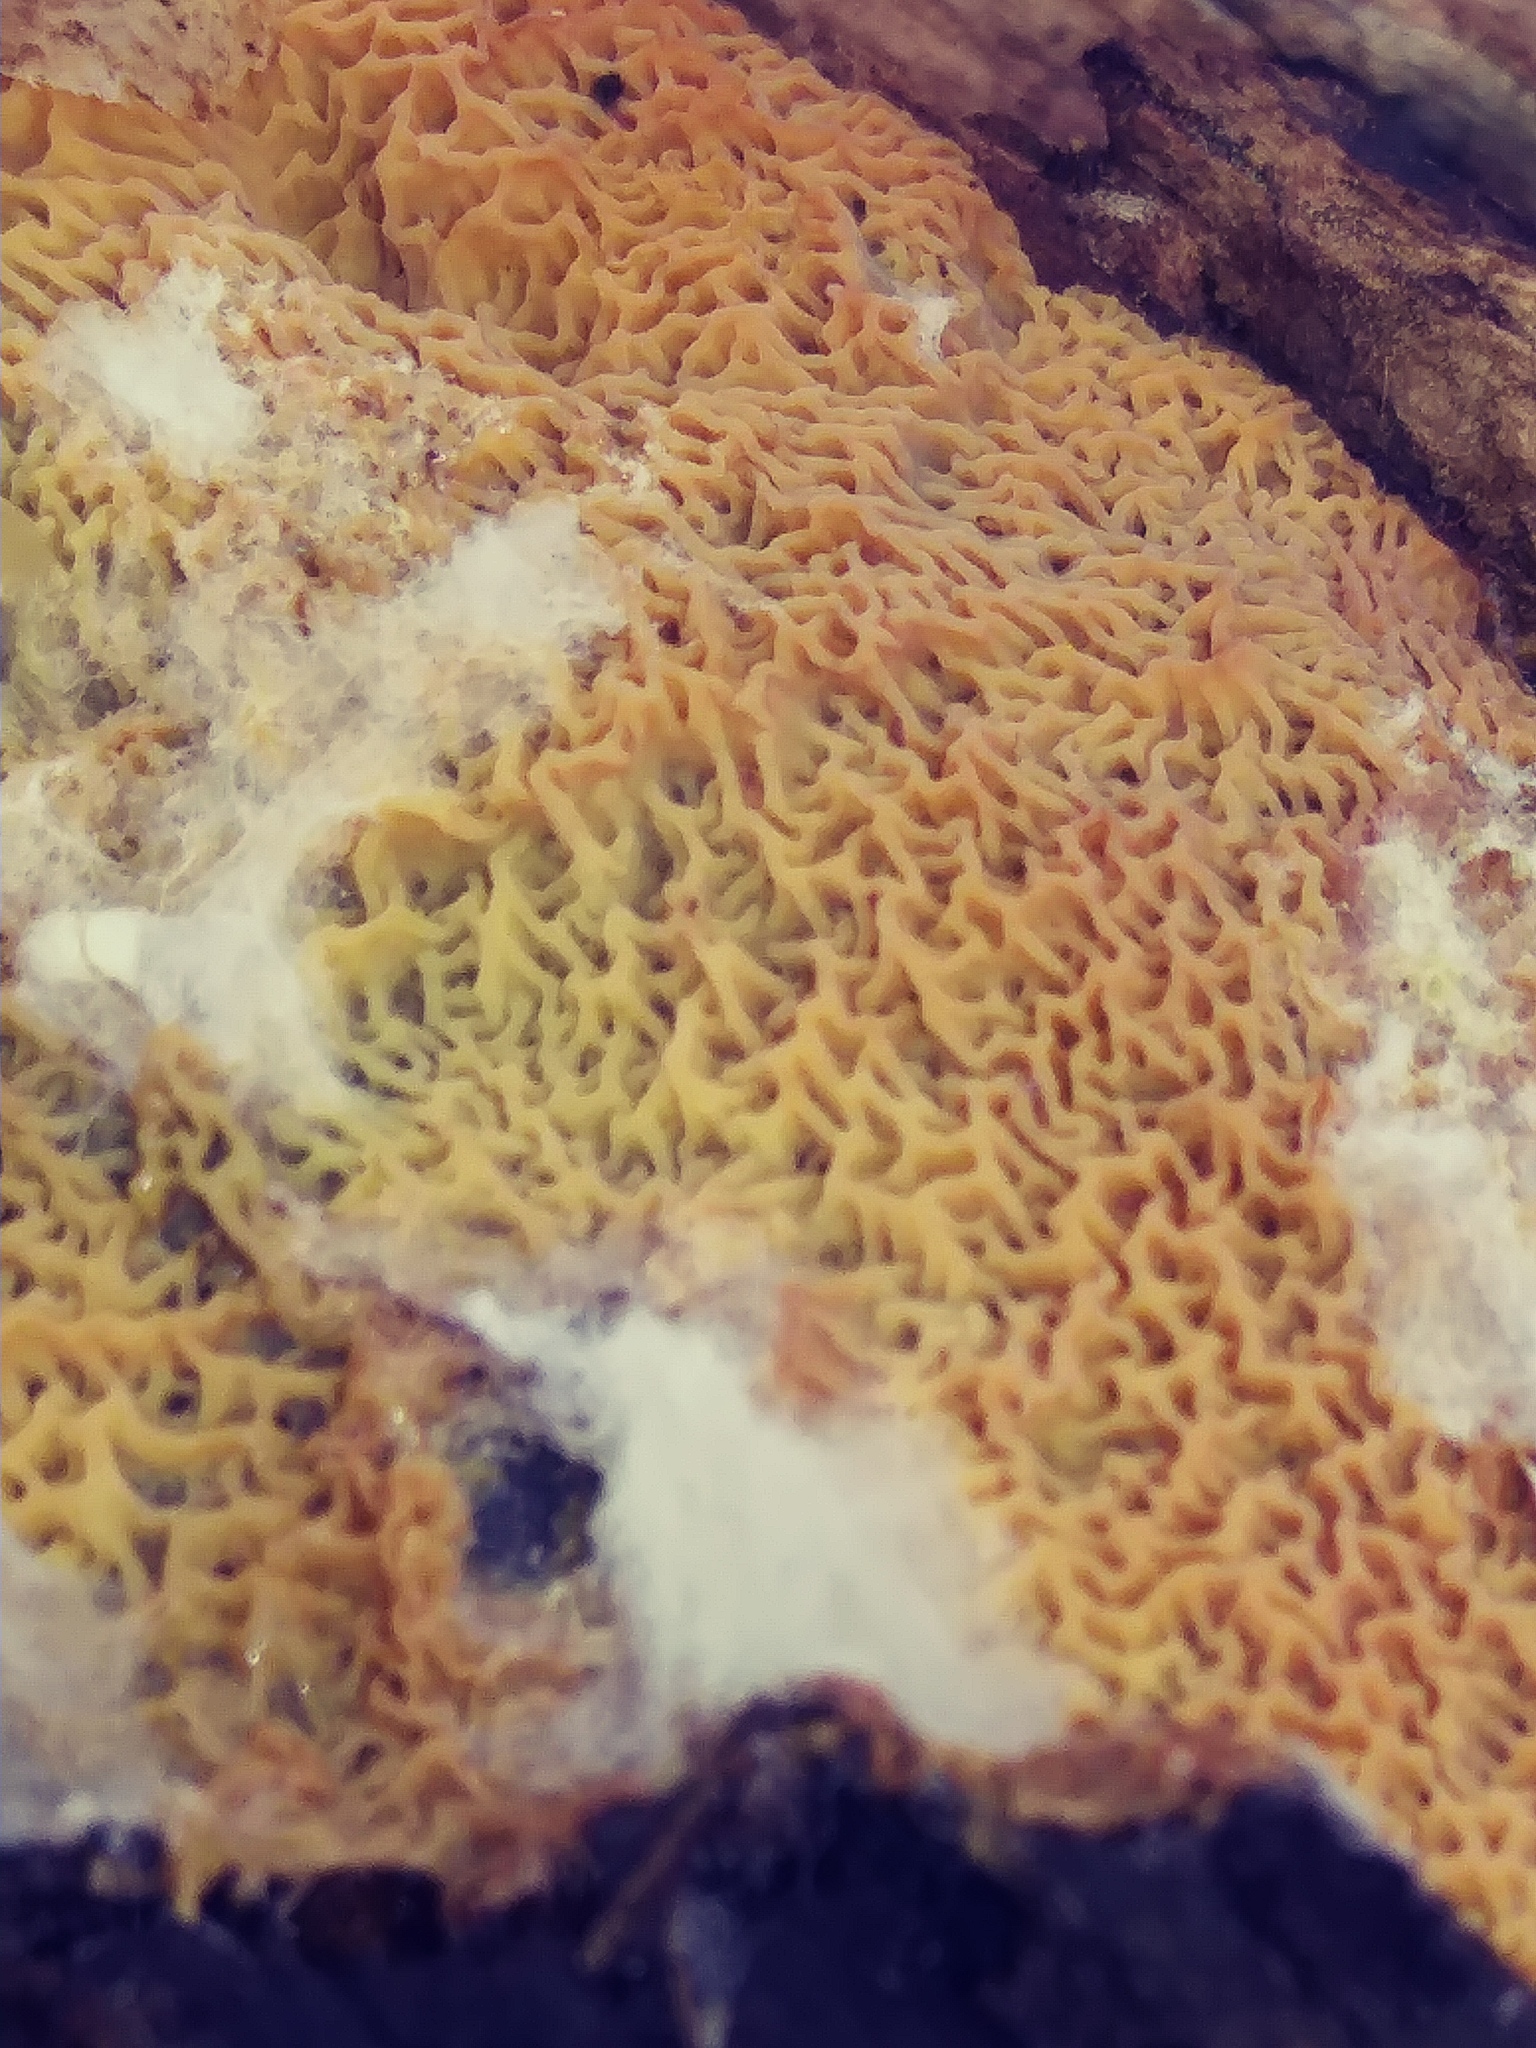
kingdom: Fungi
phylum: Basidiomycota
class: Agaricomycetes
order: Boletales
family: Serpulaceae
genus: Serpula
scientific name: Serpula himantioides
